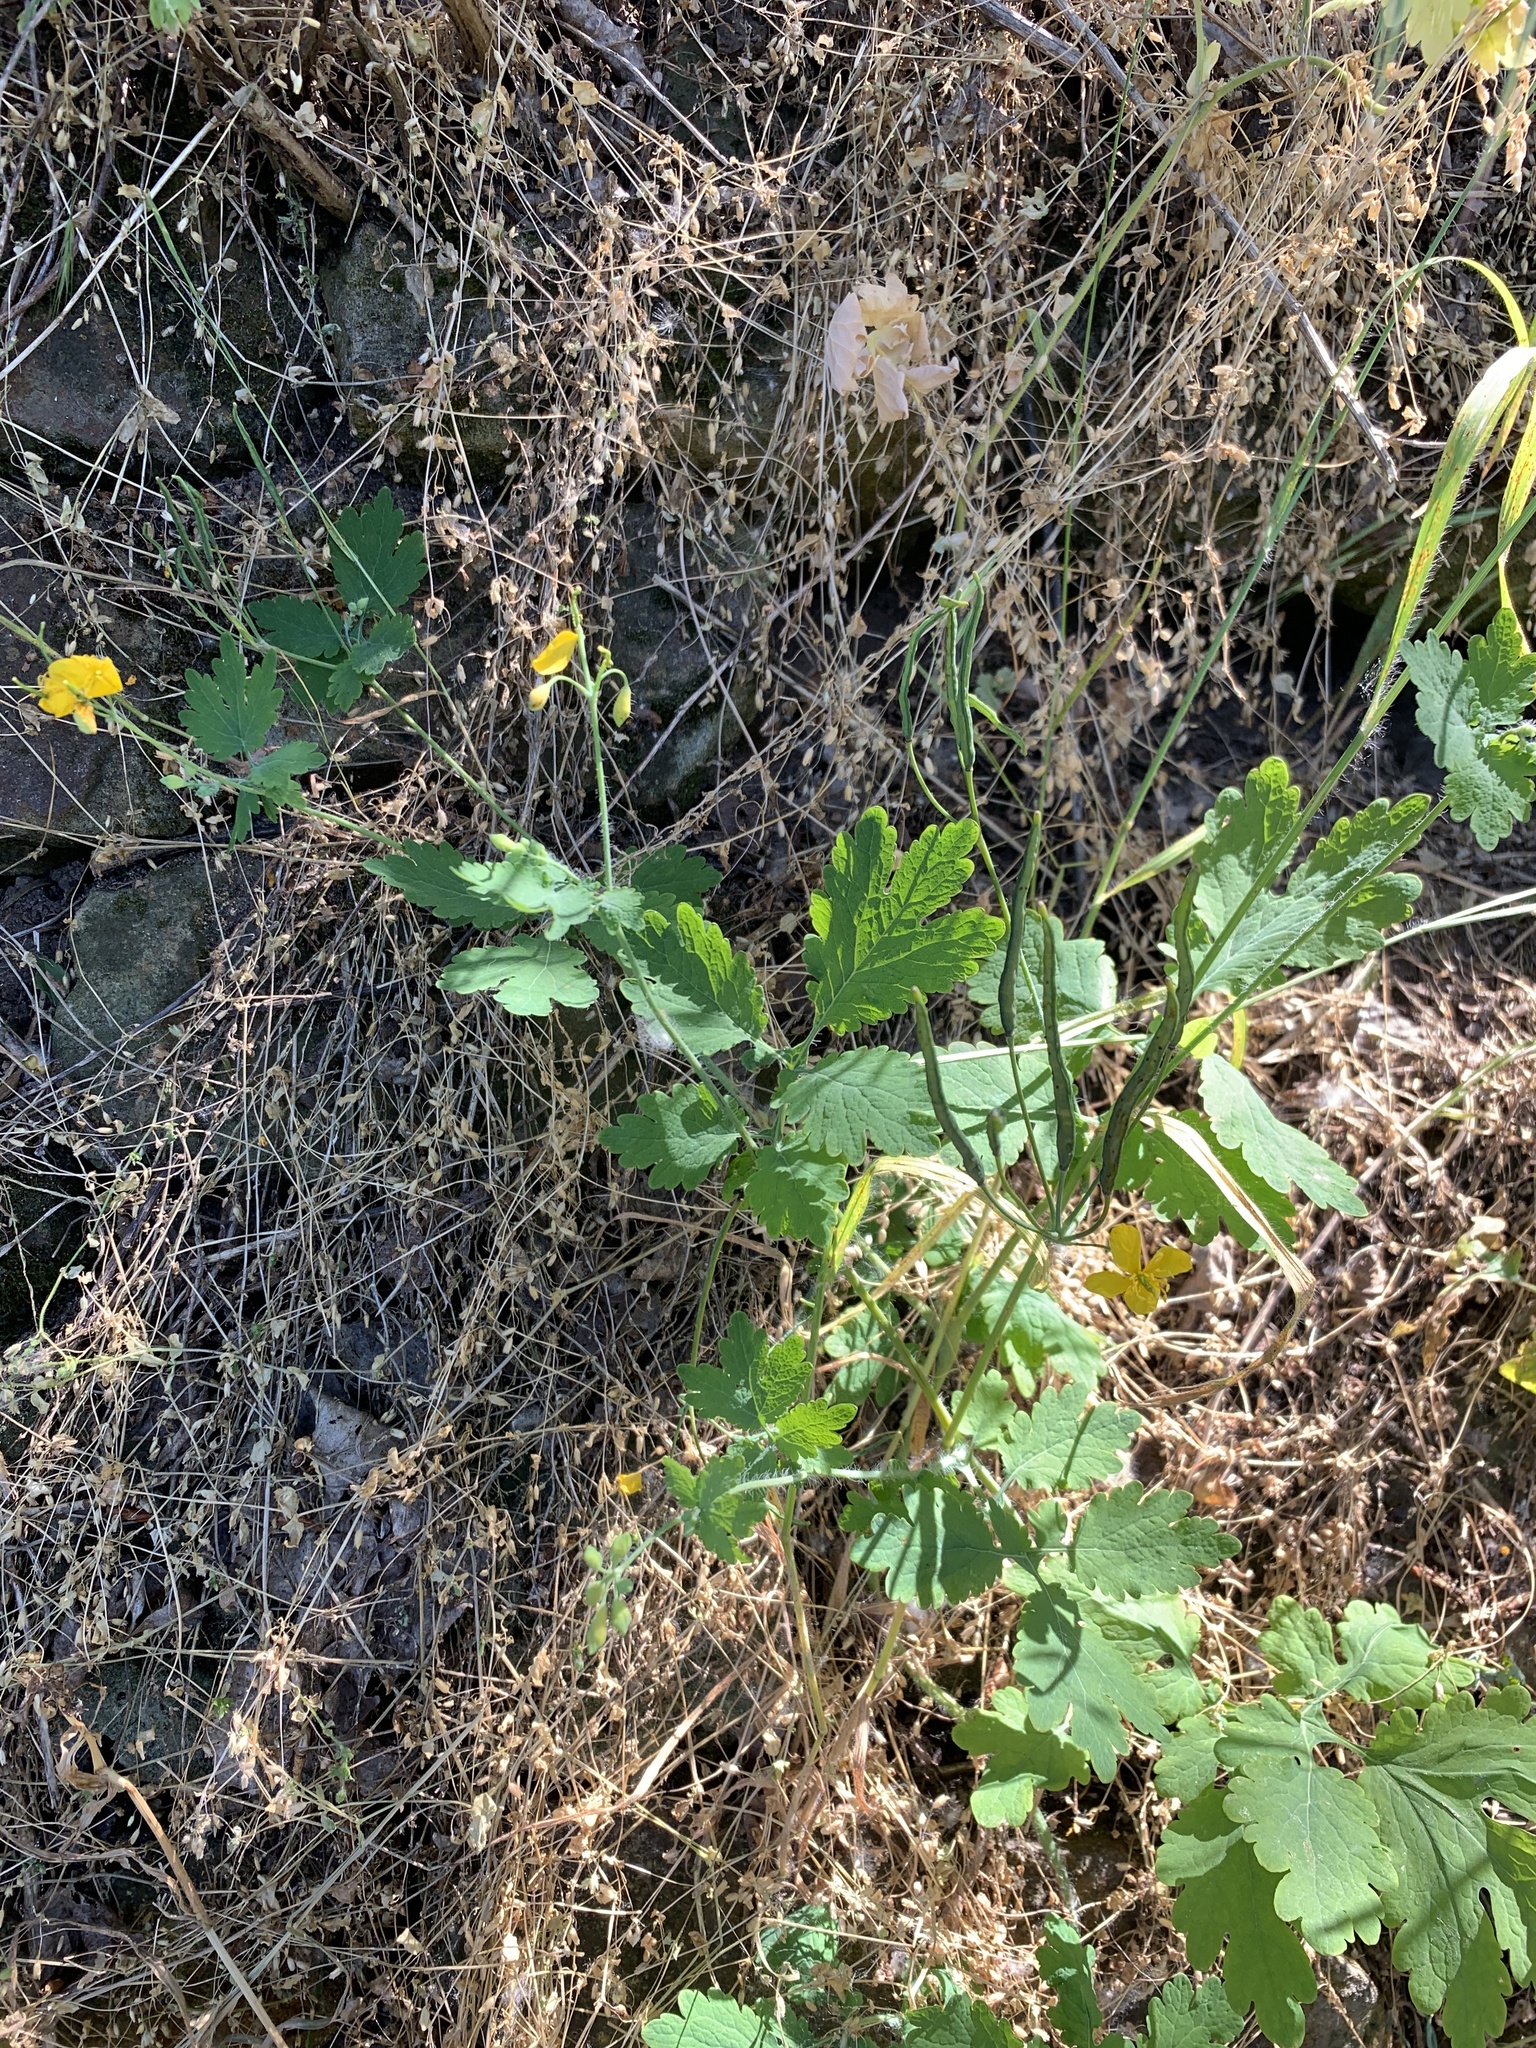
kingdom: Plantae
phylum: Tracheophyta
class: Magnoliopsida
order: Ranunculales
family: Papaveraceae
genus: Chelidonium
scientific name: Chelidonium majus
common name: Greater celandine
